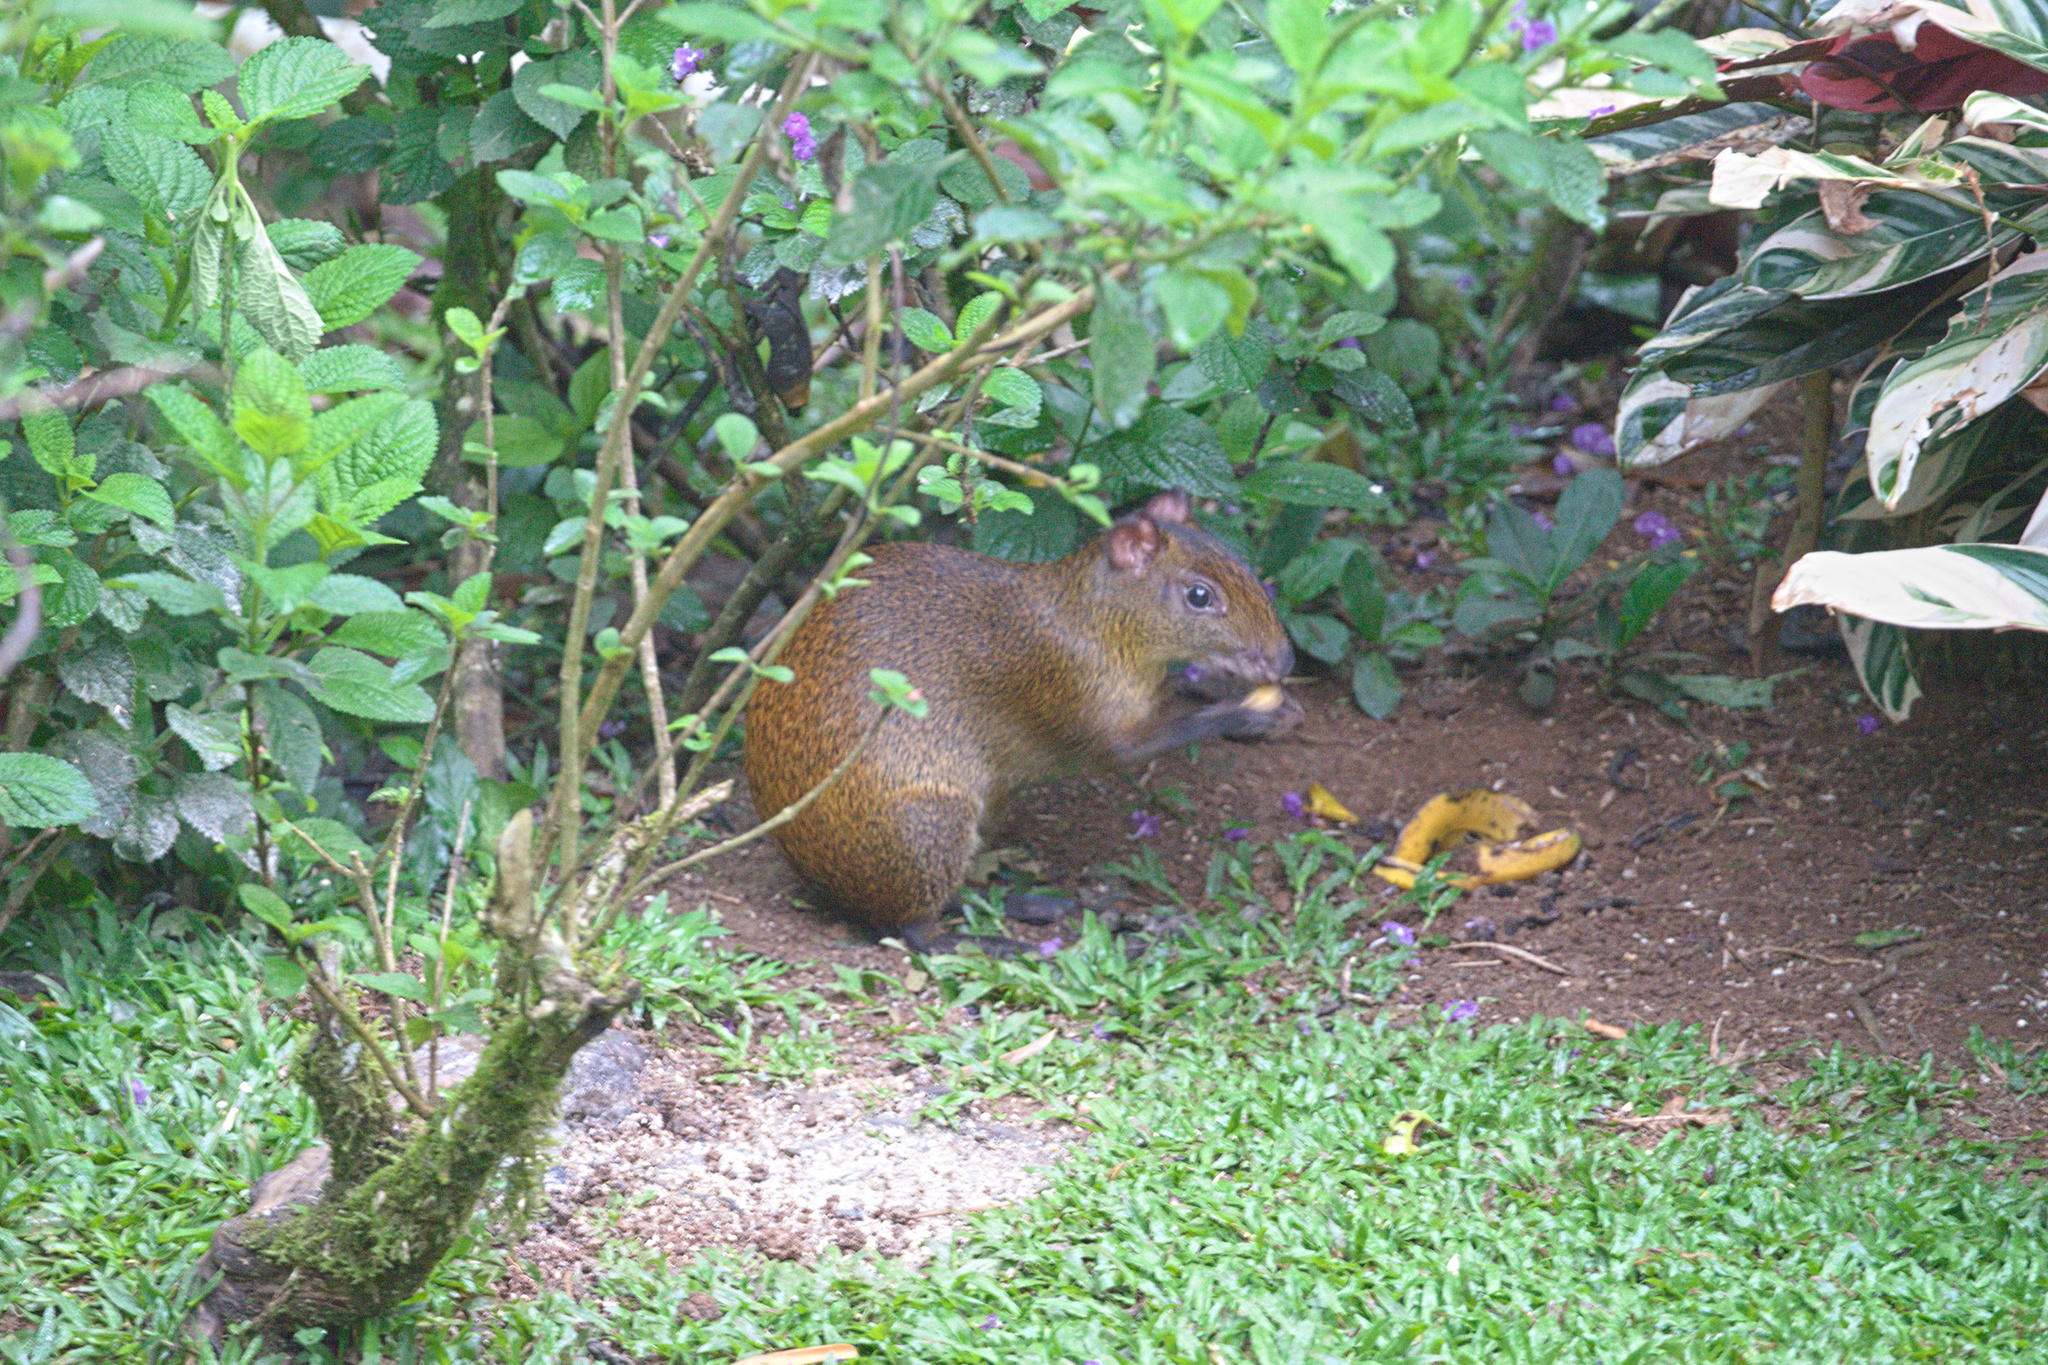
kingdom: Animalia
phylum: Chordata
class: Mammalia
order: Rodentia
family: Dasyproctidae
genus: Dasyprocta
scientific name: Dasyprocta punctata
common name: Central american agouti
